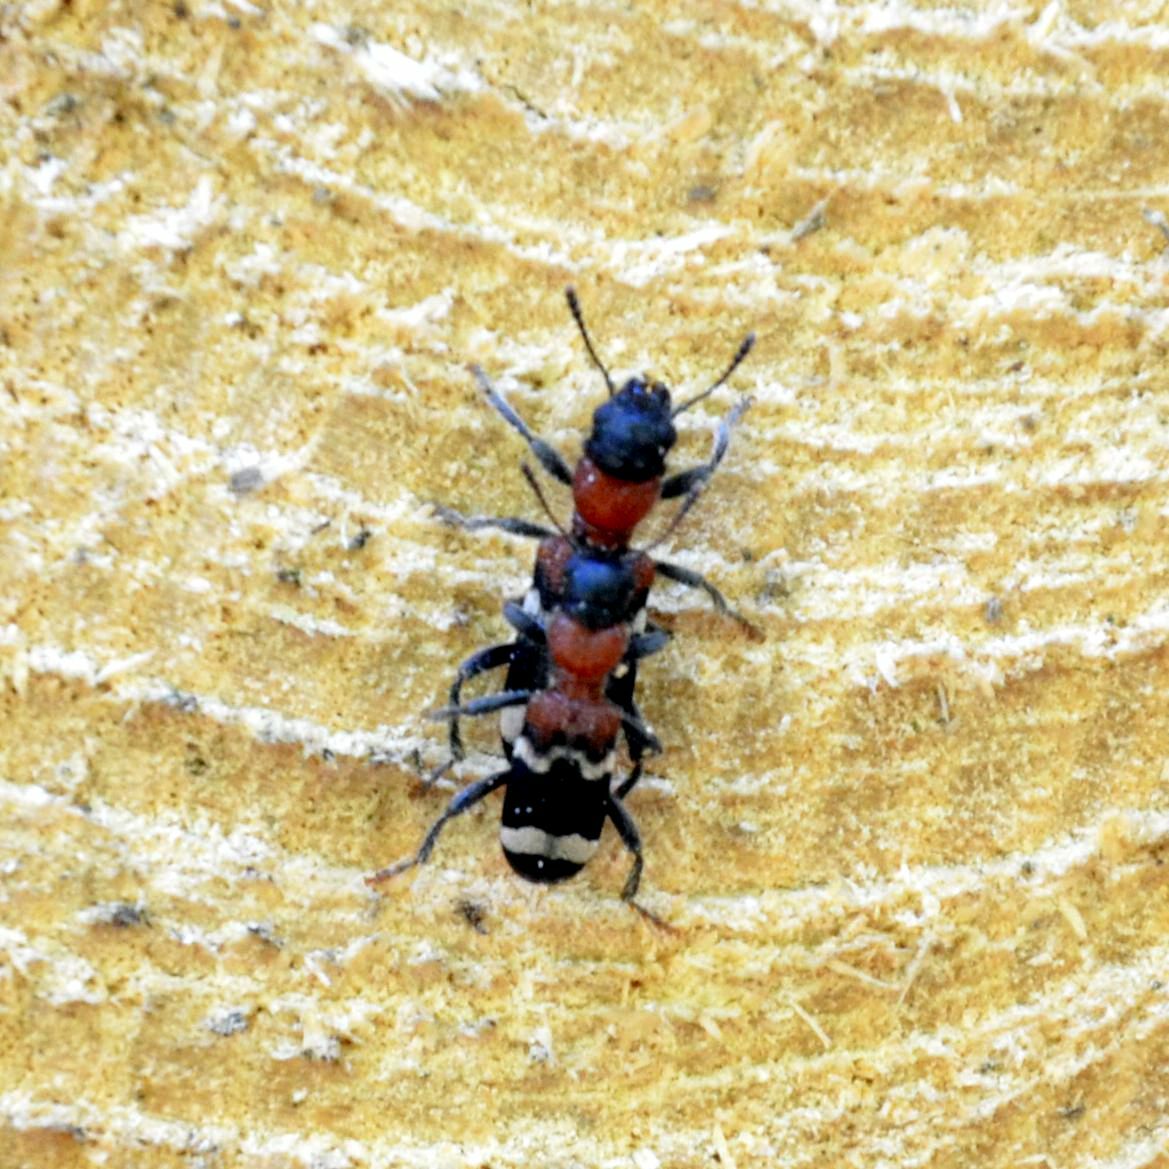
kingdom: Animalia
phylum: Arthropoda
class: Insecta
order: Coleoptera
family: Cleridae
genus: Thanasimus
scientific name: Thanasimus formicarius
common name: Ant beetle
